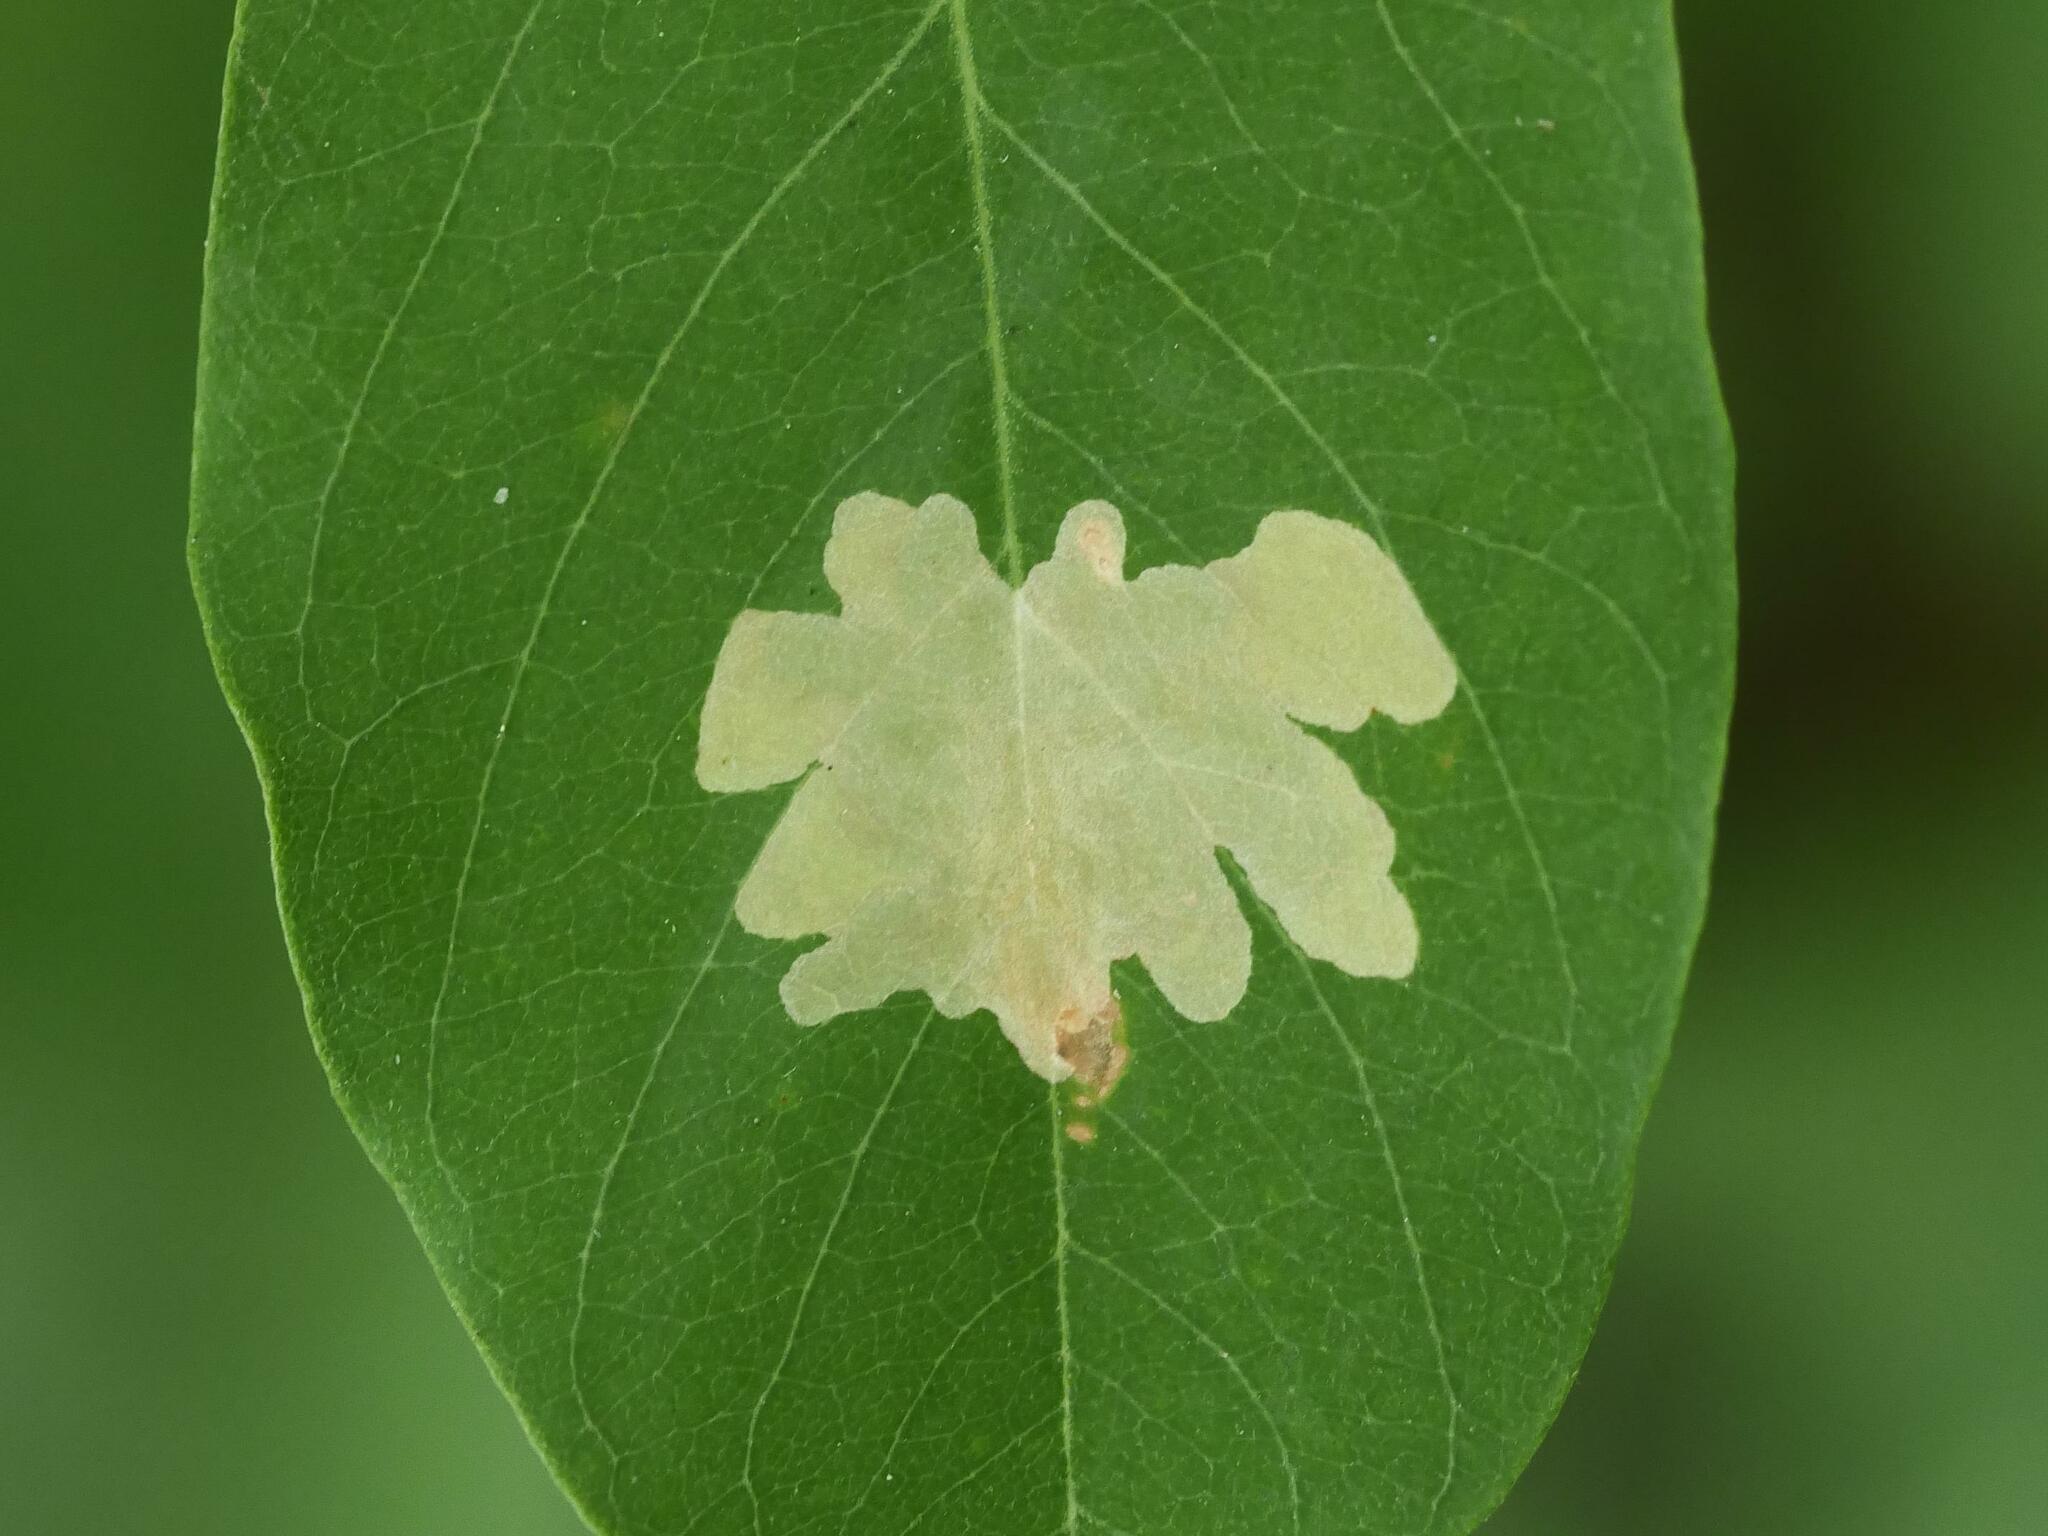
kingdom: Animalia
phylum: Arthropoda
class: Insecta
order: Lepidoptera
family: Gracillariidae
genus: Parectopa
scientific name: Parectopa robiniella
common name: Locust digitate leafminer
